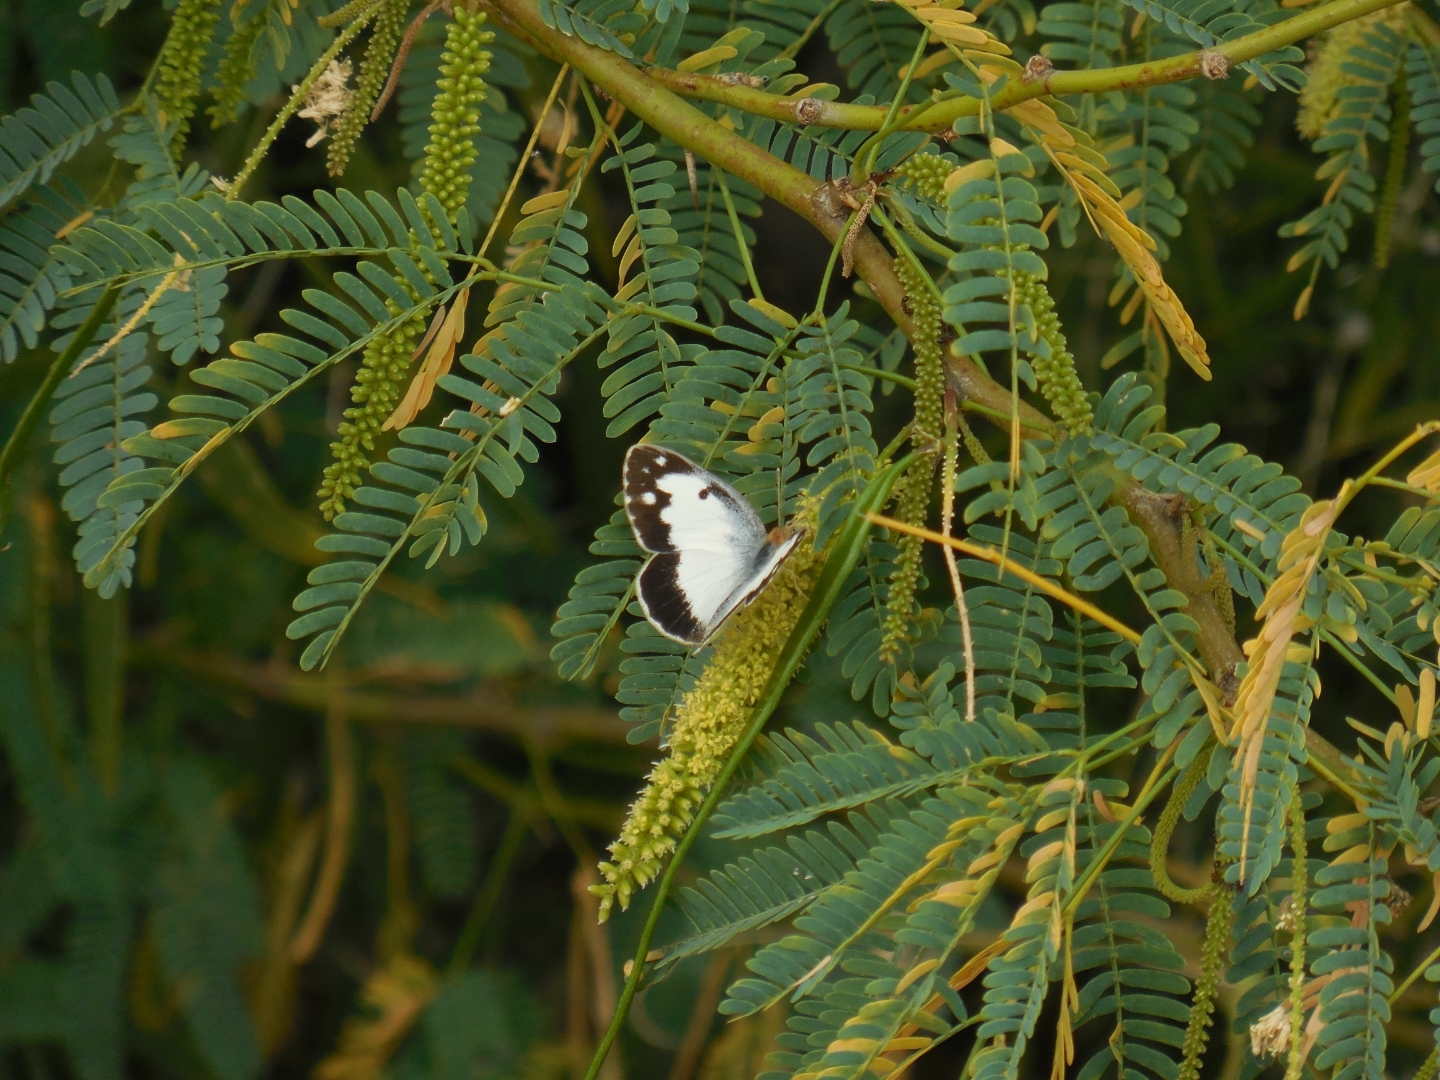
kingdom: Animalia
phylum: Arthropoda
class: Insecta
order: Lepidoptera
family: Pieridae
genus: Colotis
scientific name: Colotis phisadia
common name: Blue spotted arab
